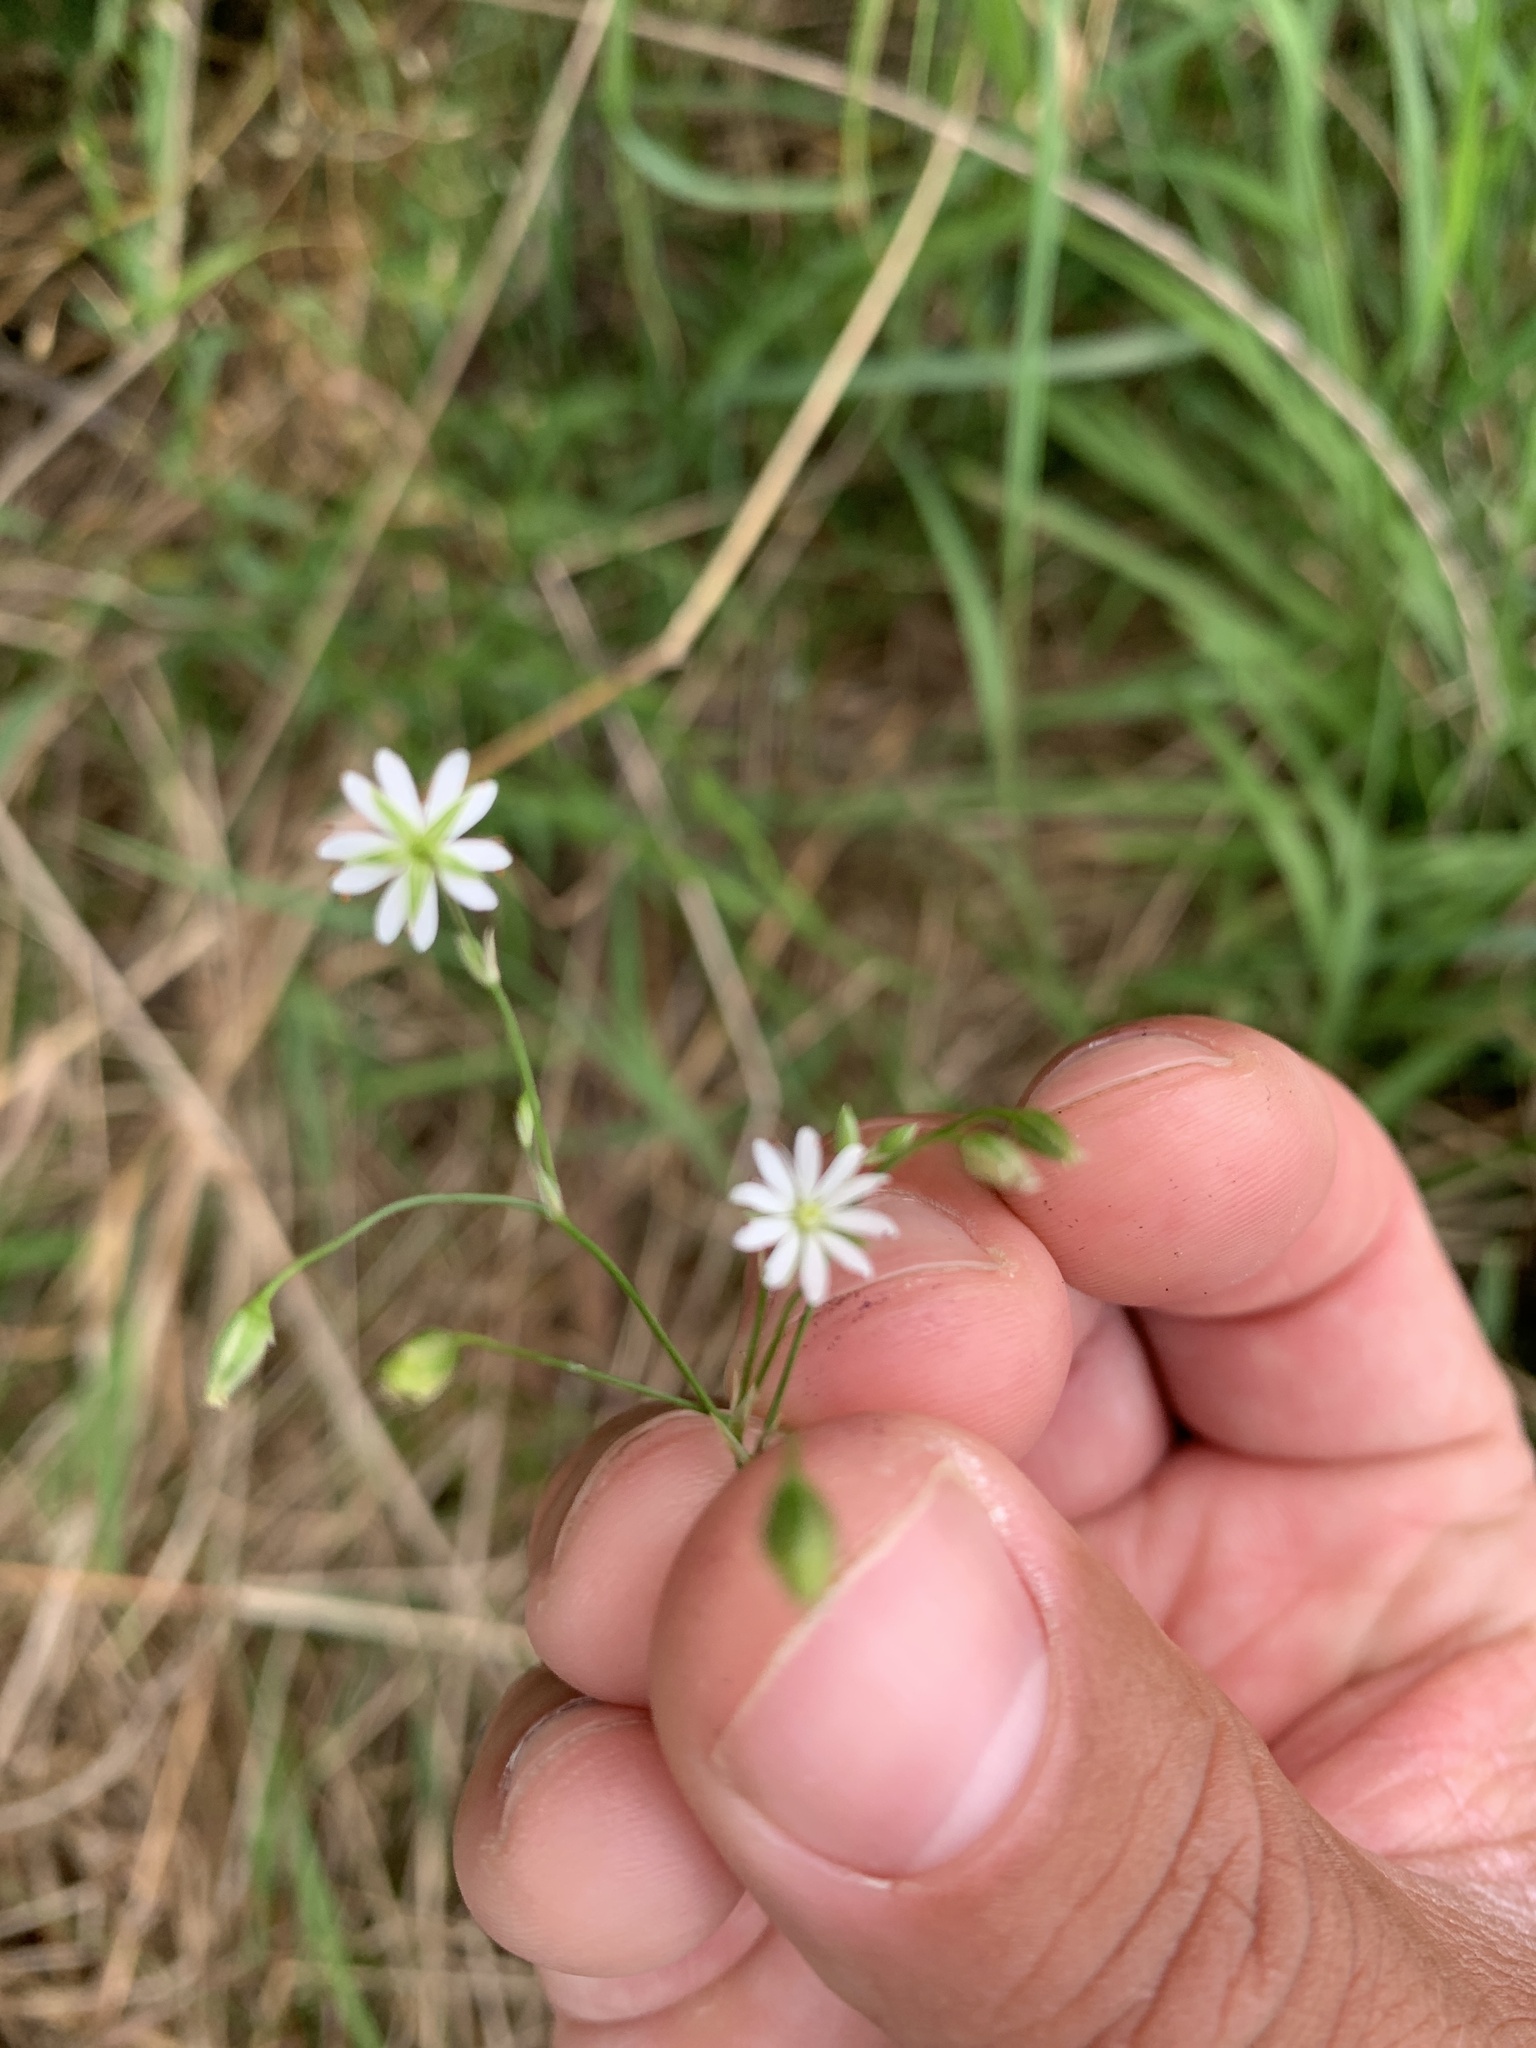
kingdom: Plantae
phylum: Tracheophyta
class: Magnoliopsida
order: Caryophyllales
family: Caryophyllaceae
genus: Stellaria
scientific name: Stellaria graminea
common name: Grass-like starwort
